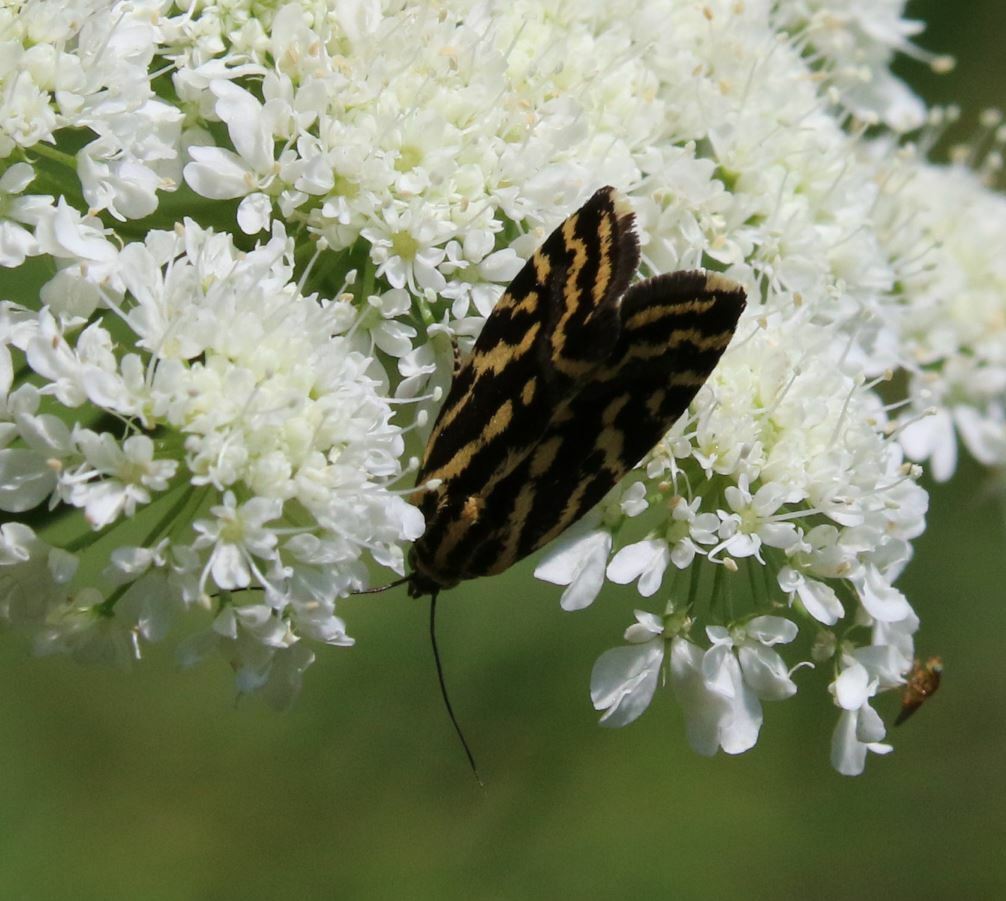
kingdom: Animalia
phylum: Arthropoda
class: Insecta
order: Lepidoptera
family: Noctuidae
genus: Acontia
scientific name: Acontia trabealis
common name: Spotted sulphur
